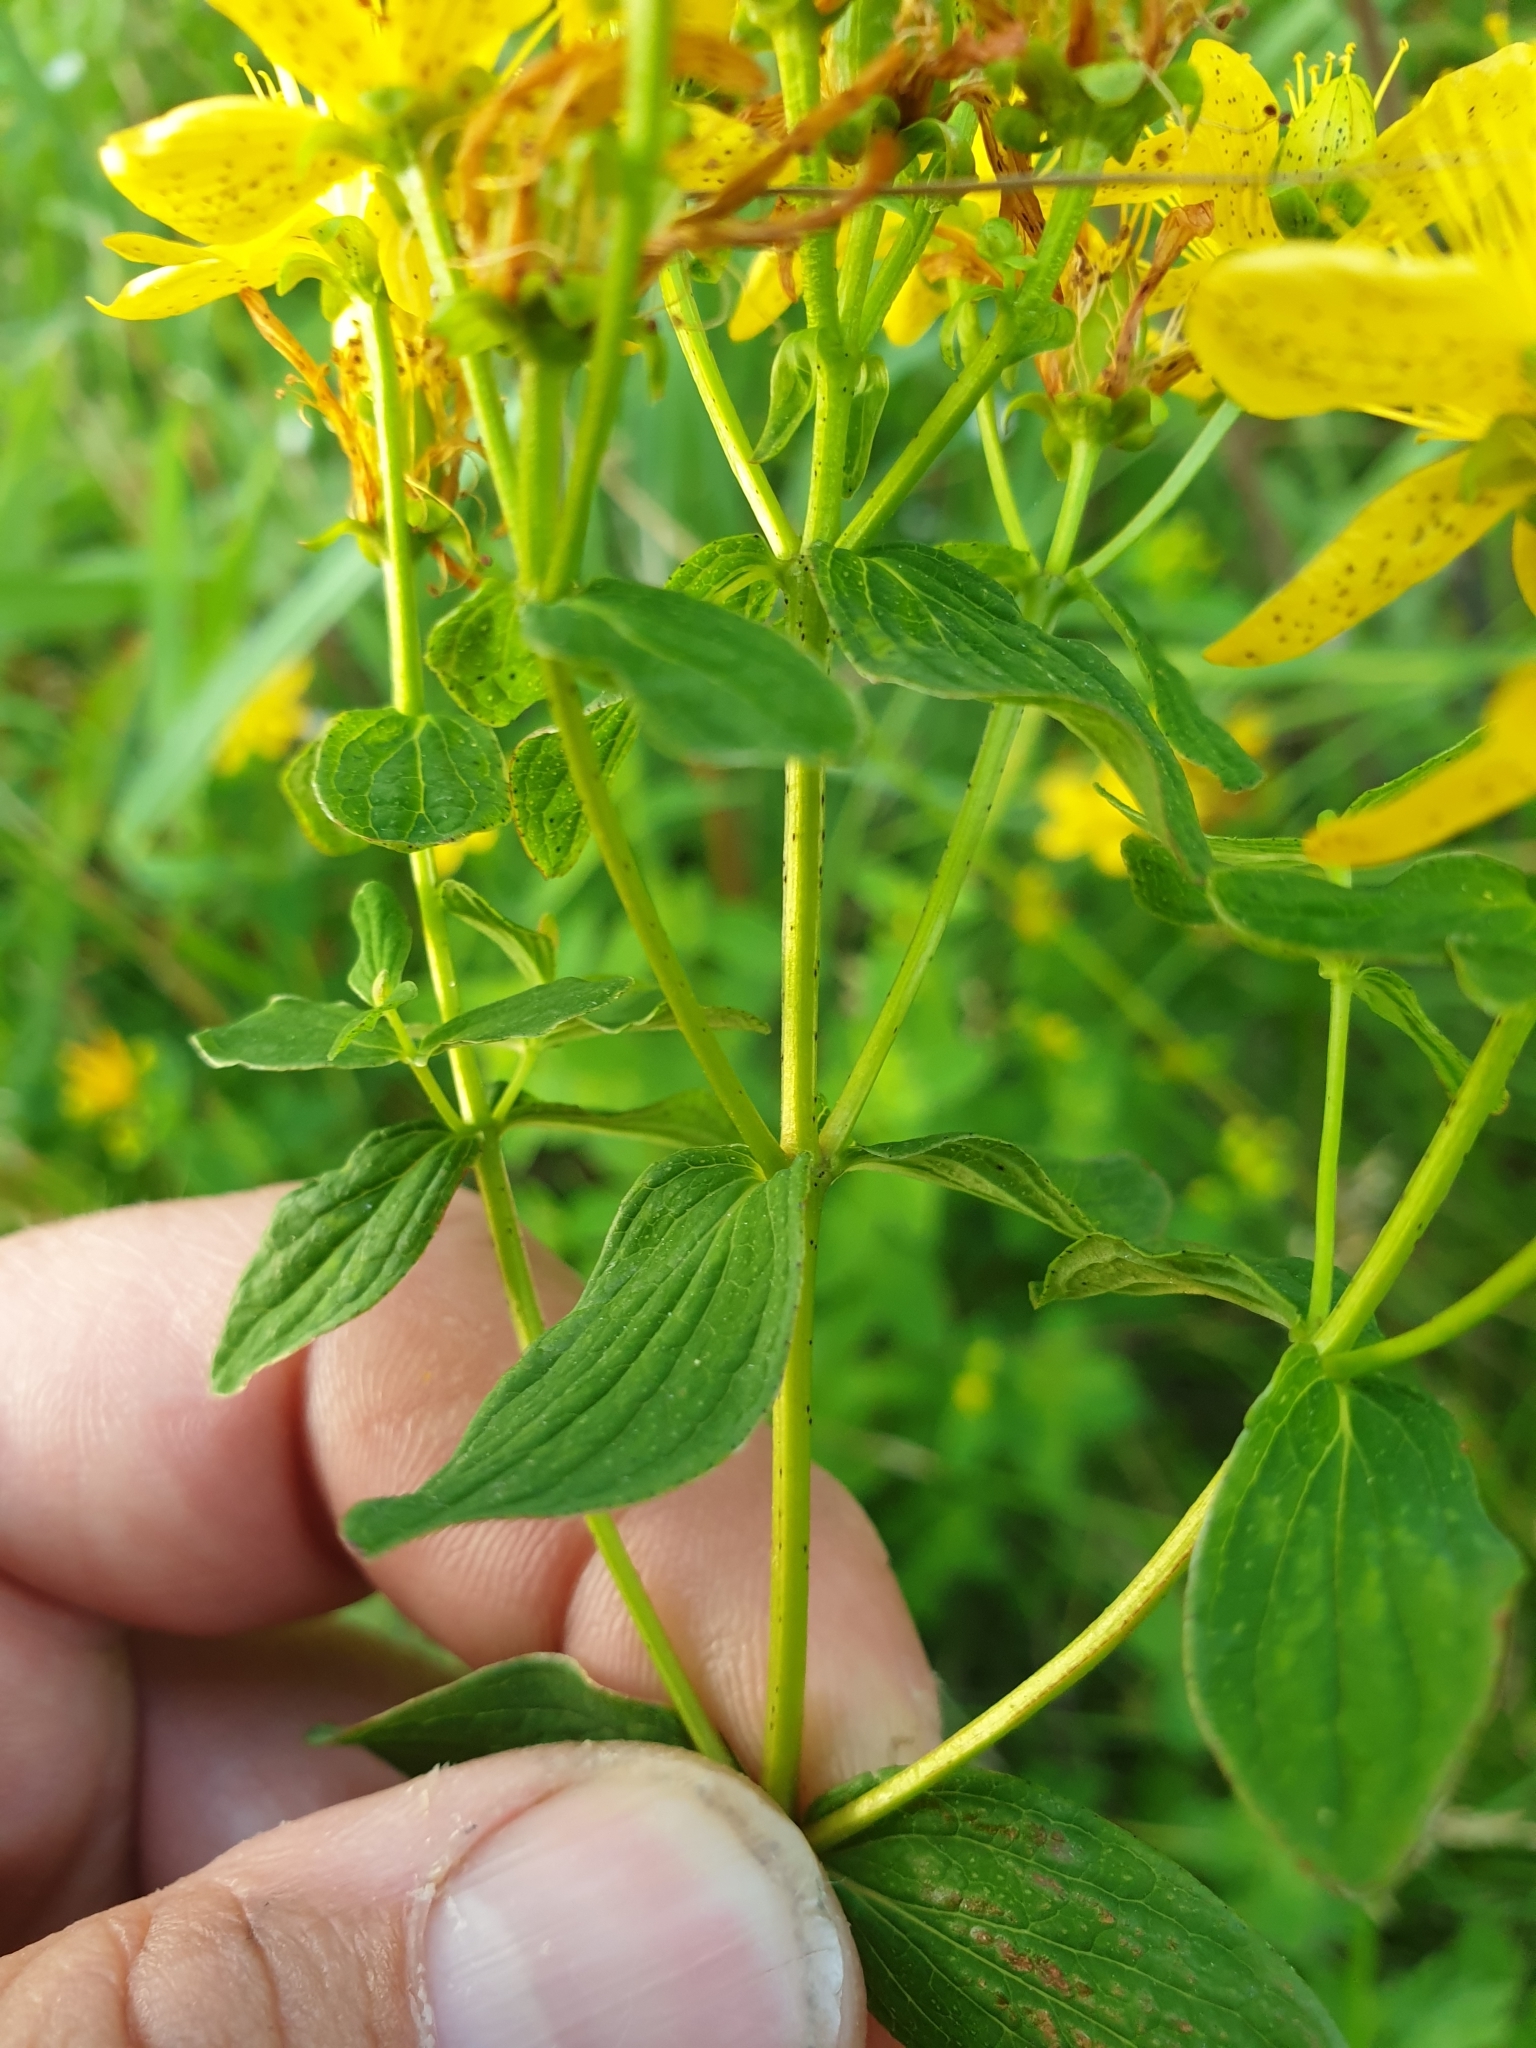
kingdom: Plantae
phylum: Tracheophyta
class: Magnoliopsida
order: Malpighiales
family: Hypericaceae
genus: Hypericum
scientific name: Hypericum maculatum
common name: Imperforate st. john's-wort
